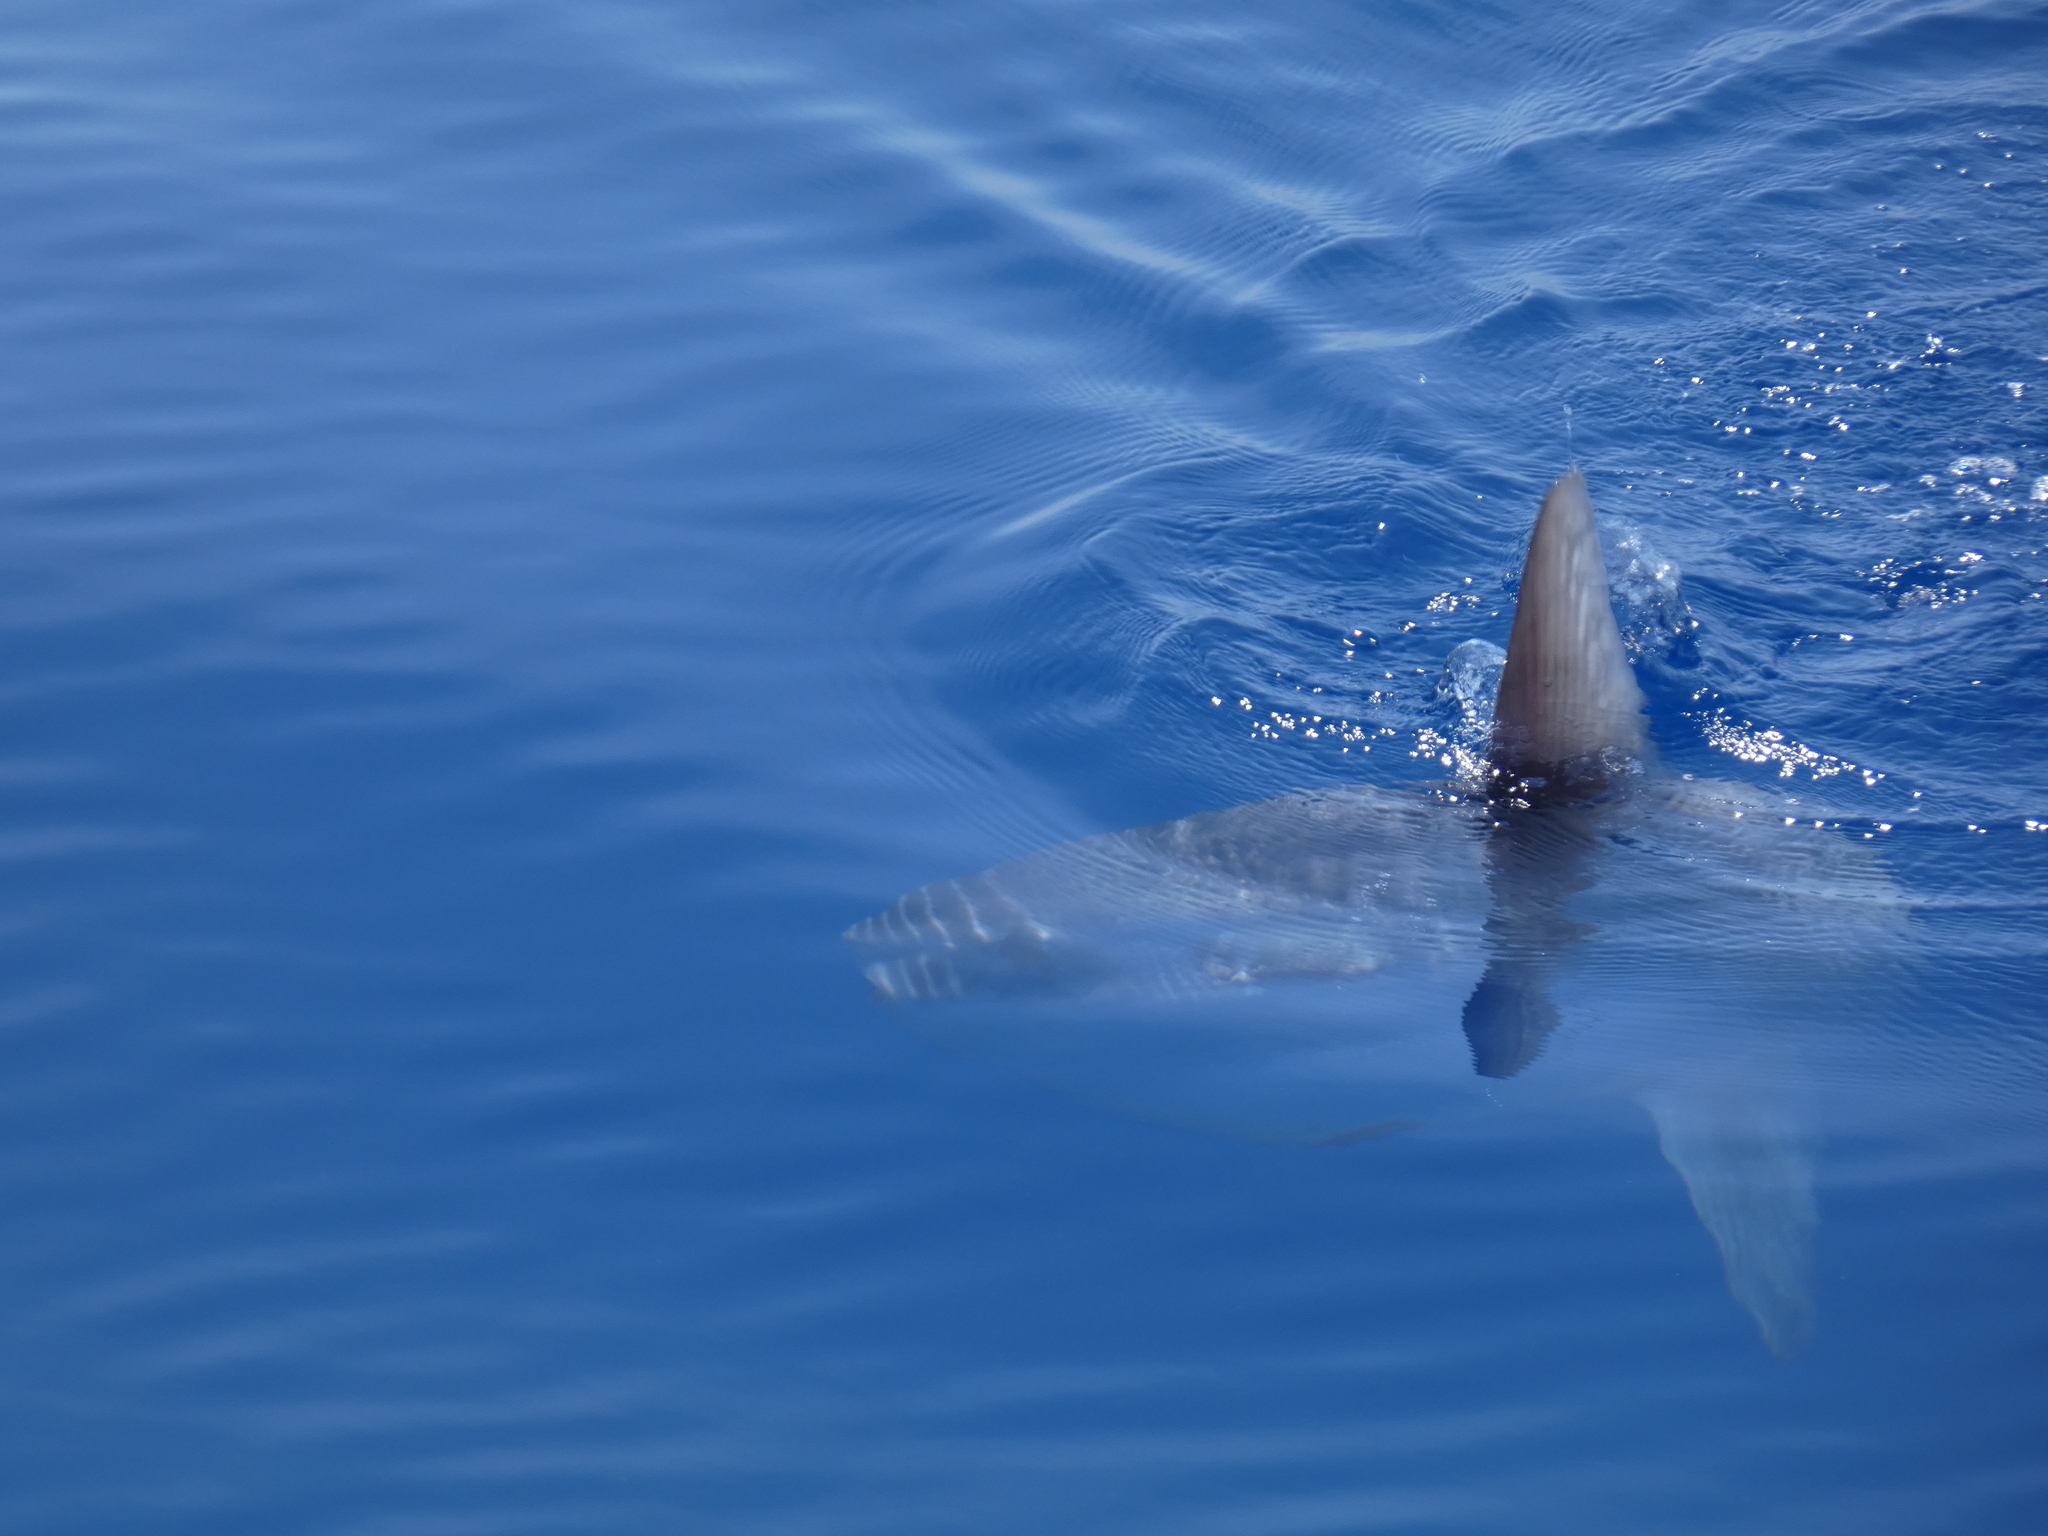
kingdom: Animalia
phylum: Chordata
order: Tetraodontiformes
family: Molidae
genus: Mola
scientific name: Mola mola
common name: Ocean sunfish
